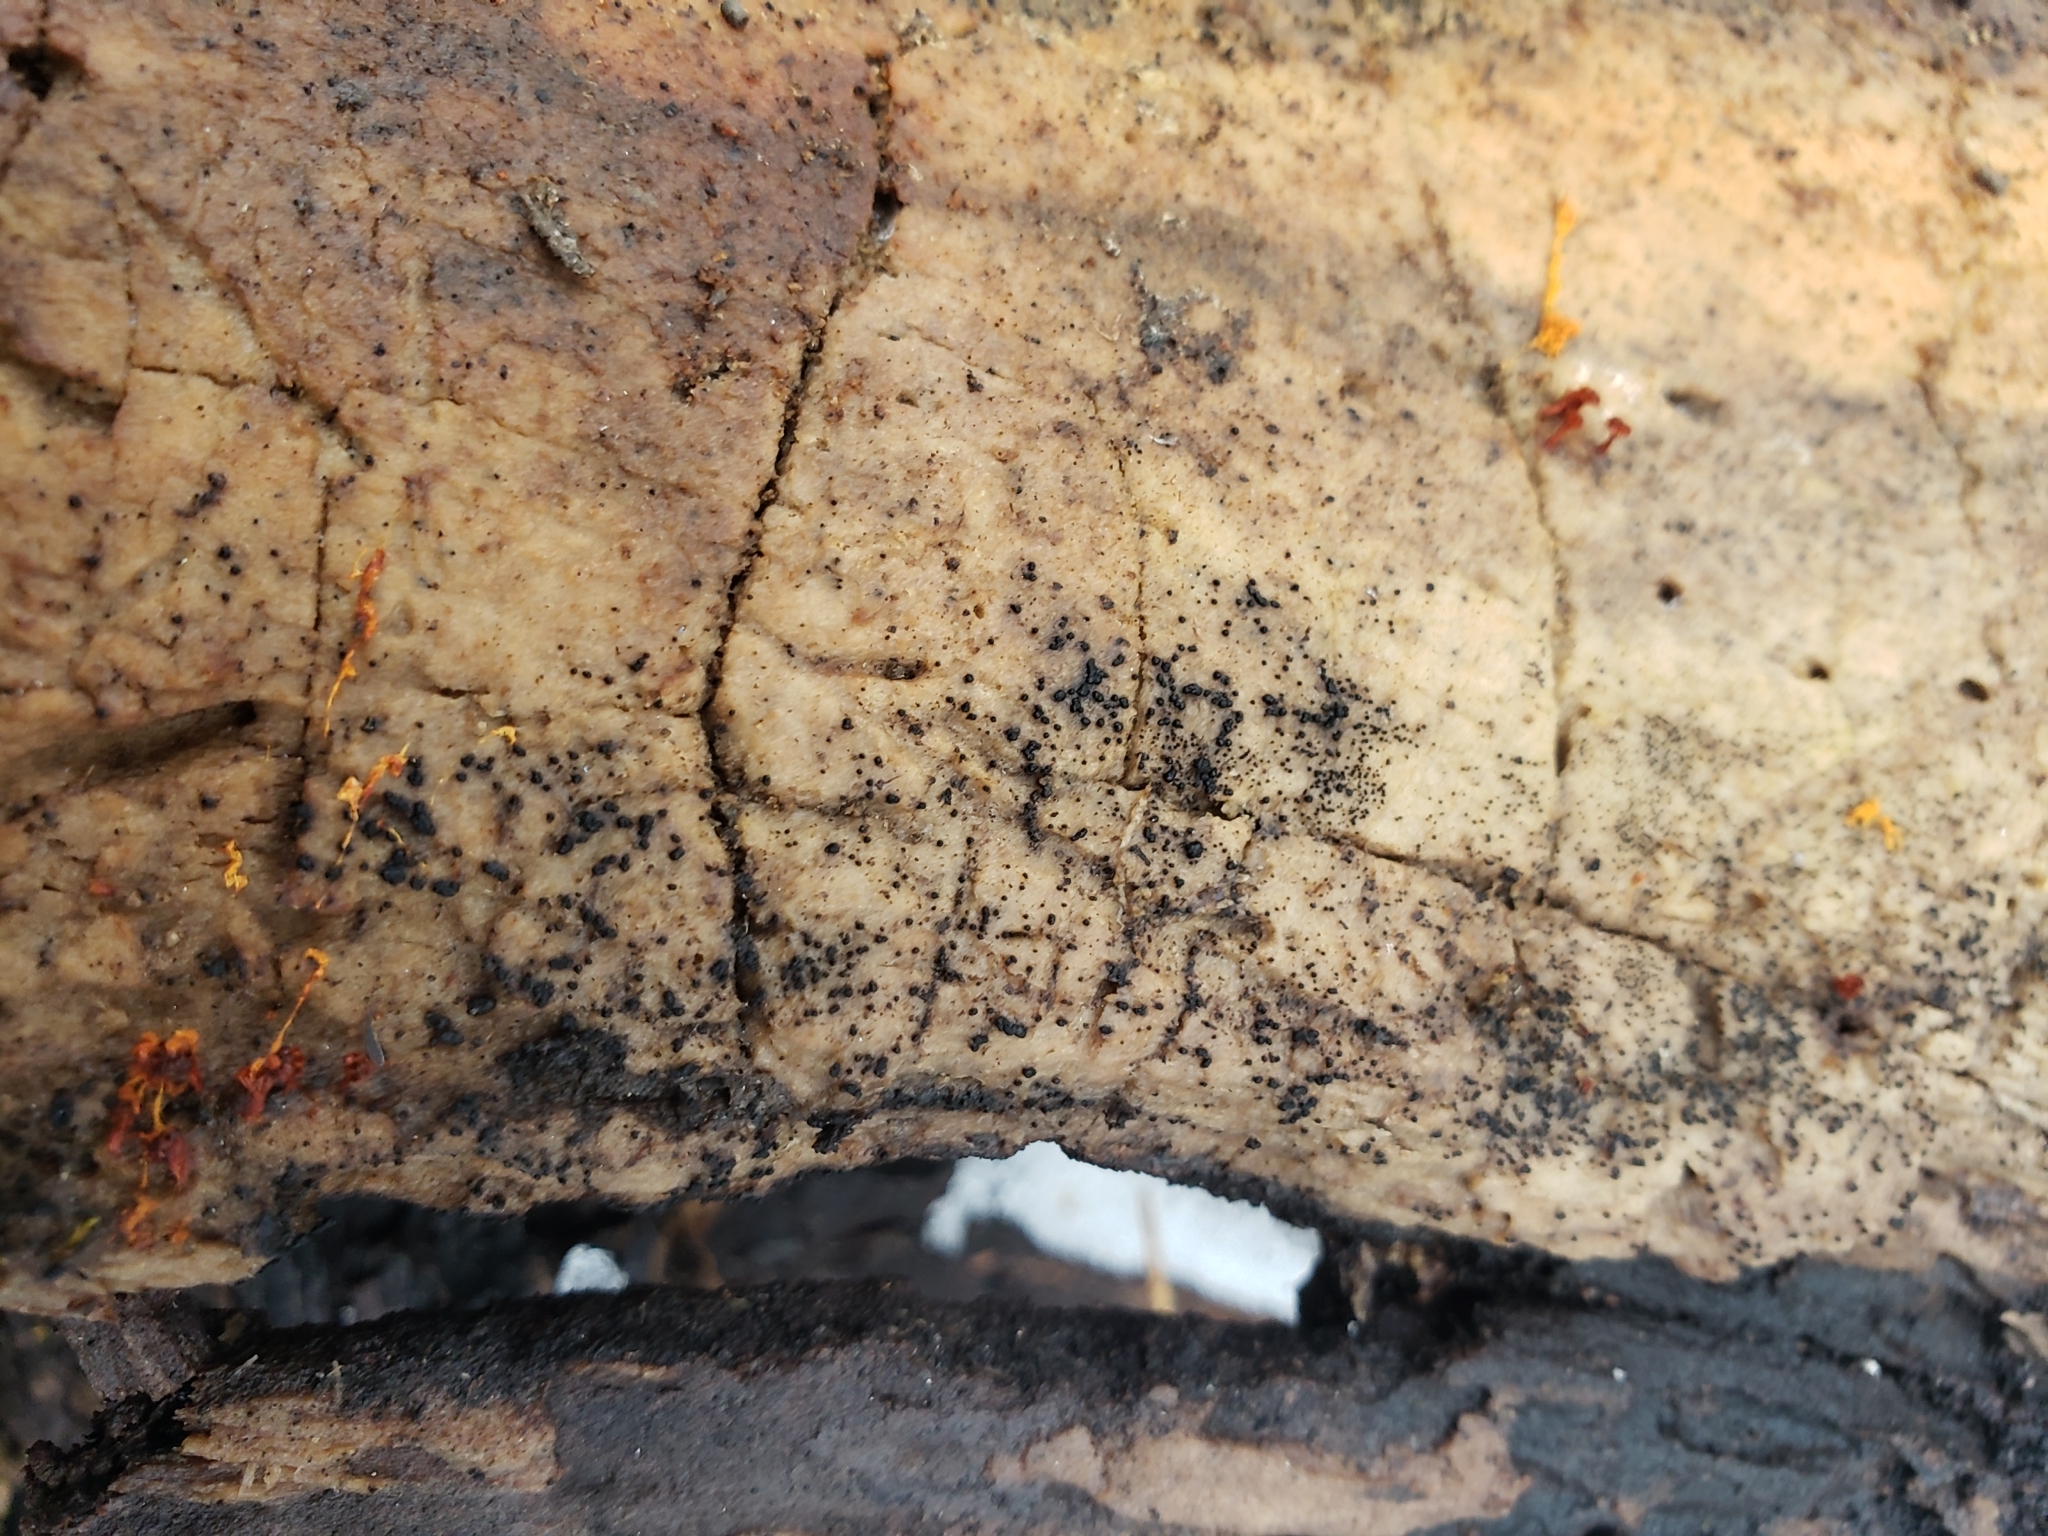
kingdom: Fungi
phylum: Ascomycota
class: Dothideomycetes
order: Pleosporales
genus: Berkleasmium
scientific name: Berkleasmium concinnum
